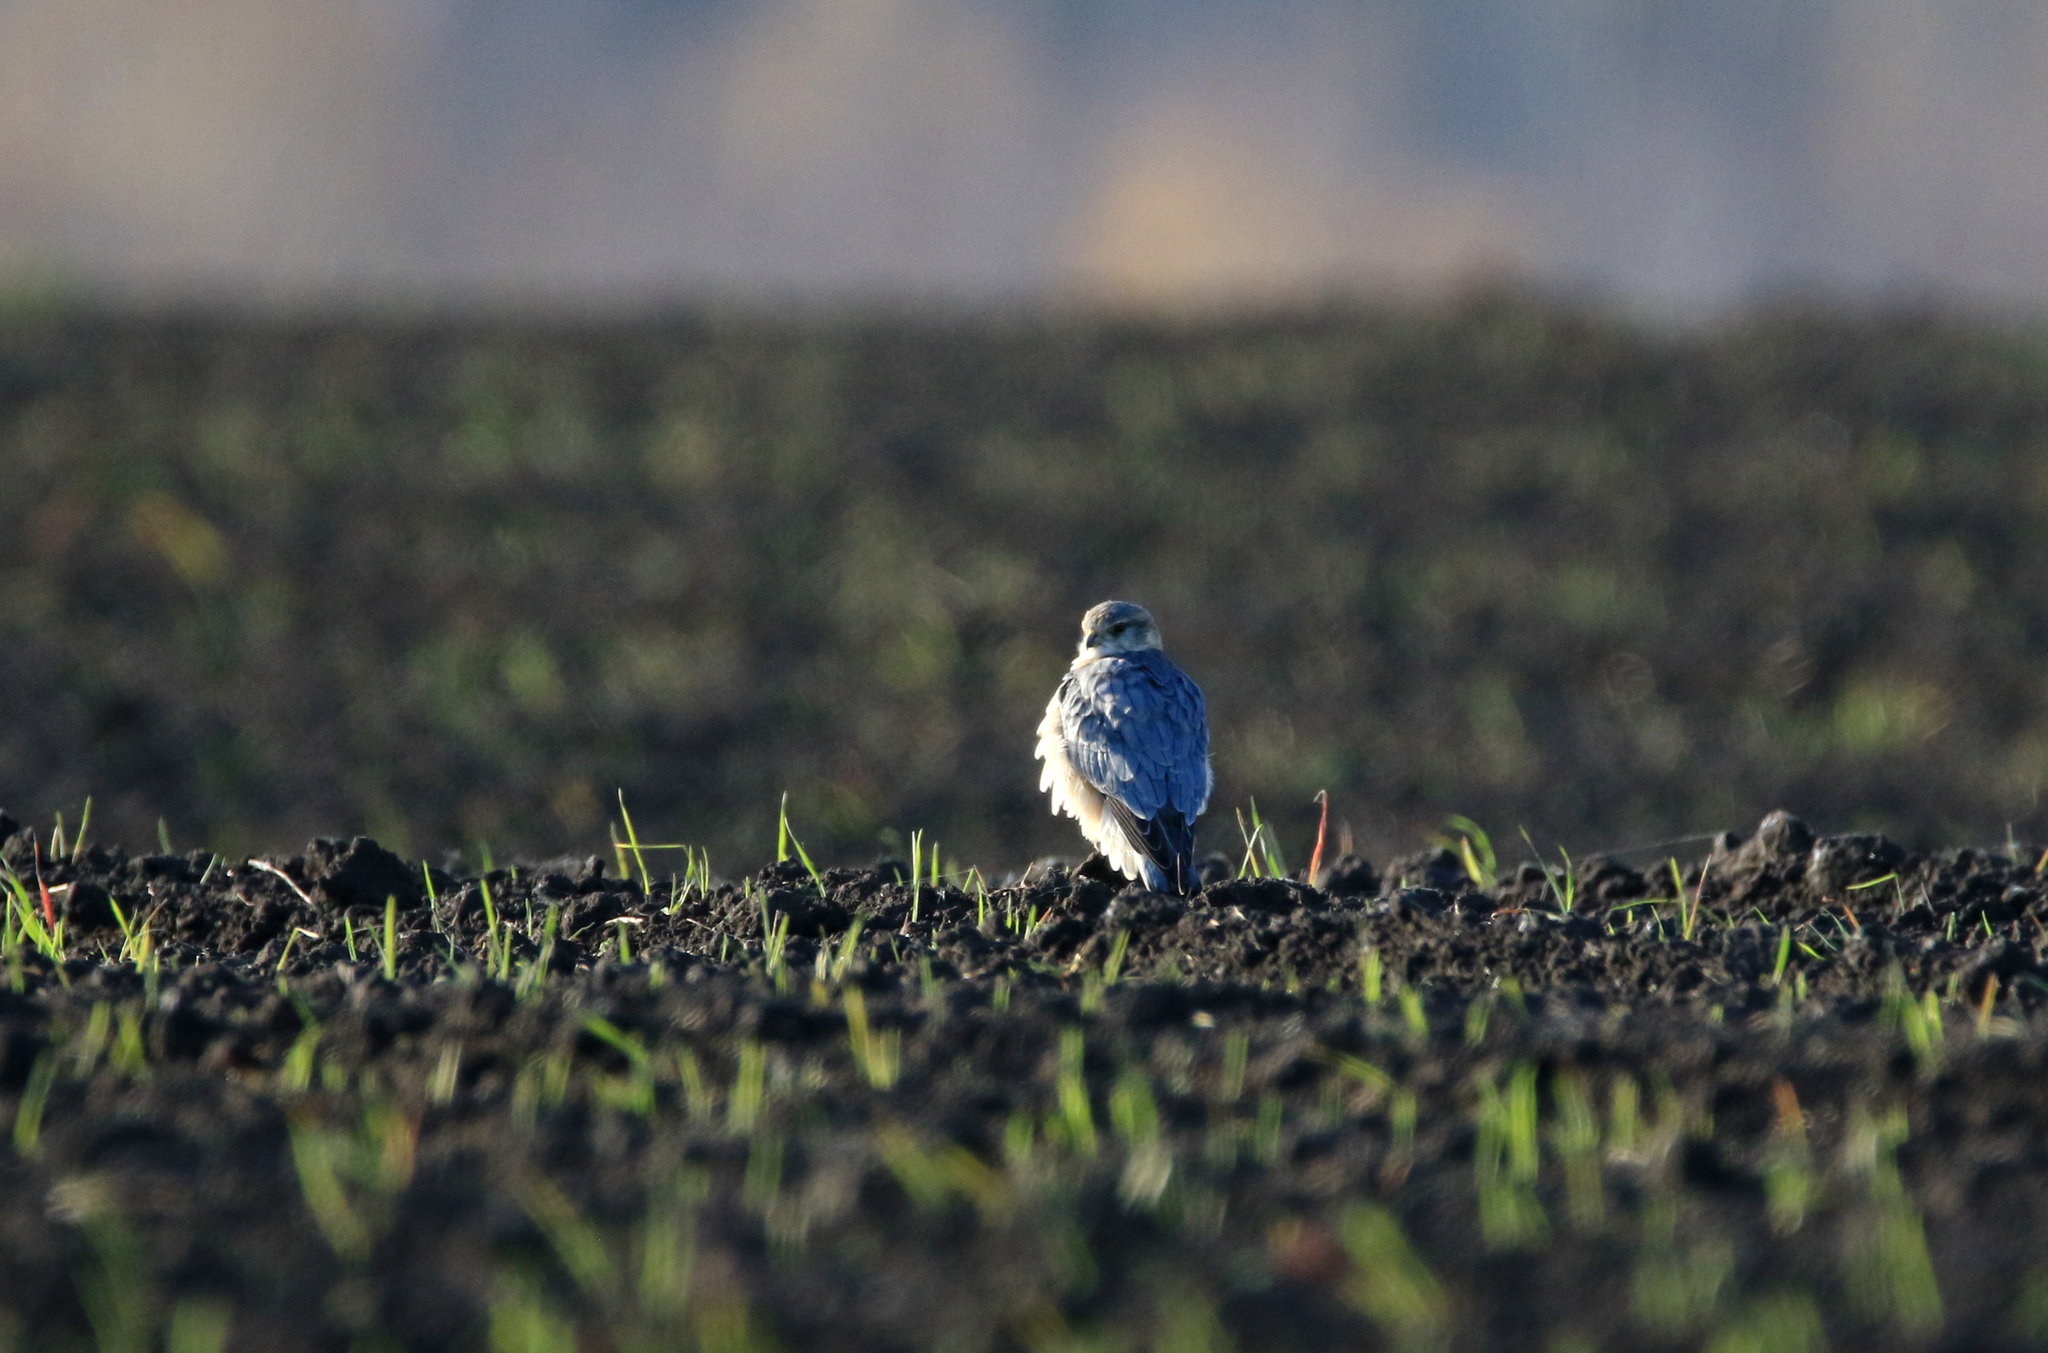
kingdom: Animalia
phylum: Chordata
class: Aves
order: Falconiformes
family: Falconidae
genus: Falco
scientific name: Falco columbarius
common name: Merlin
